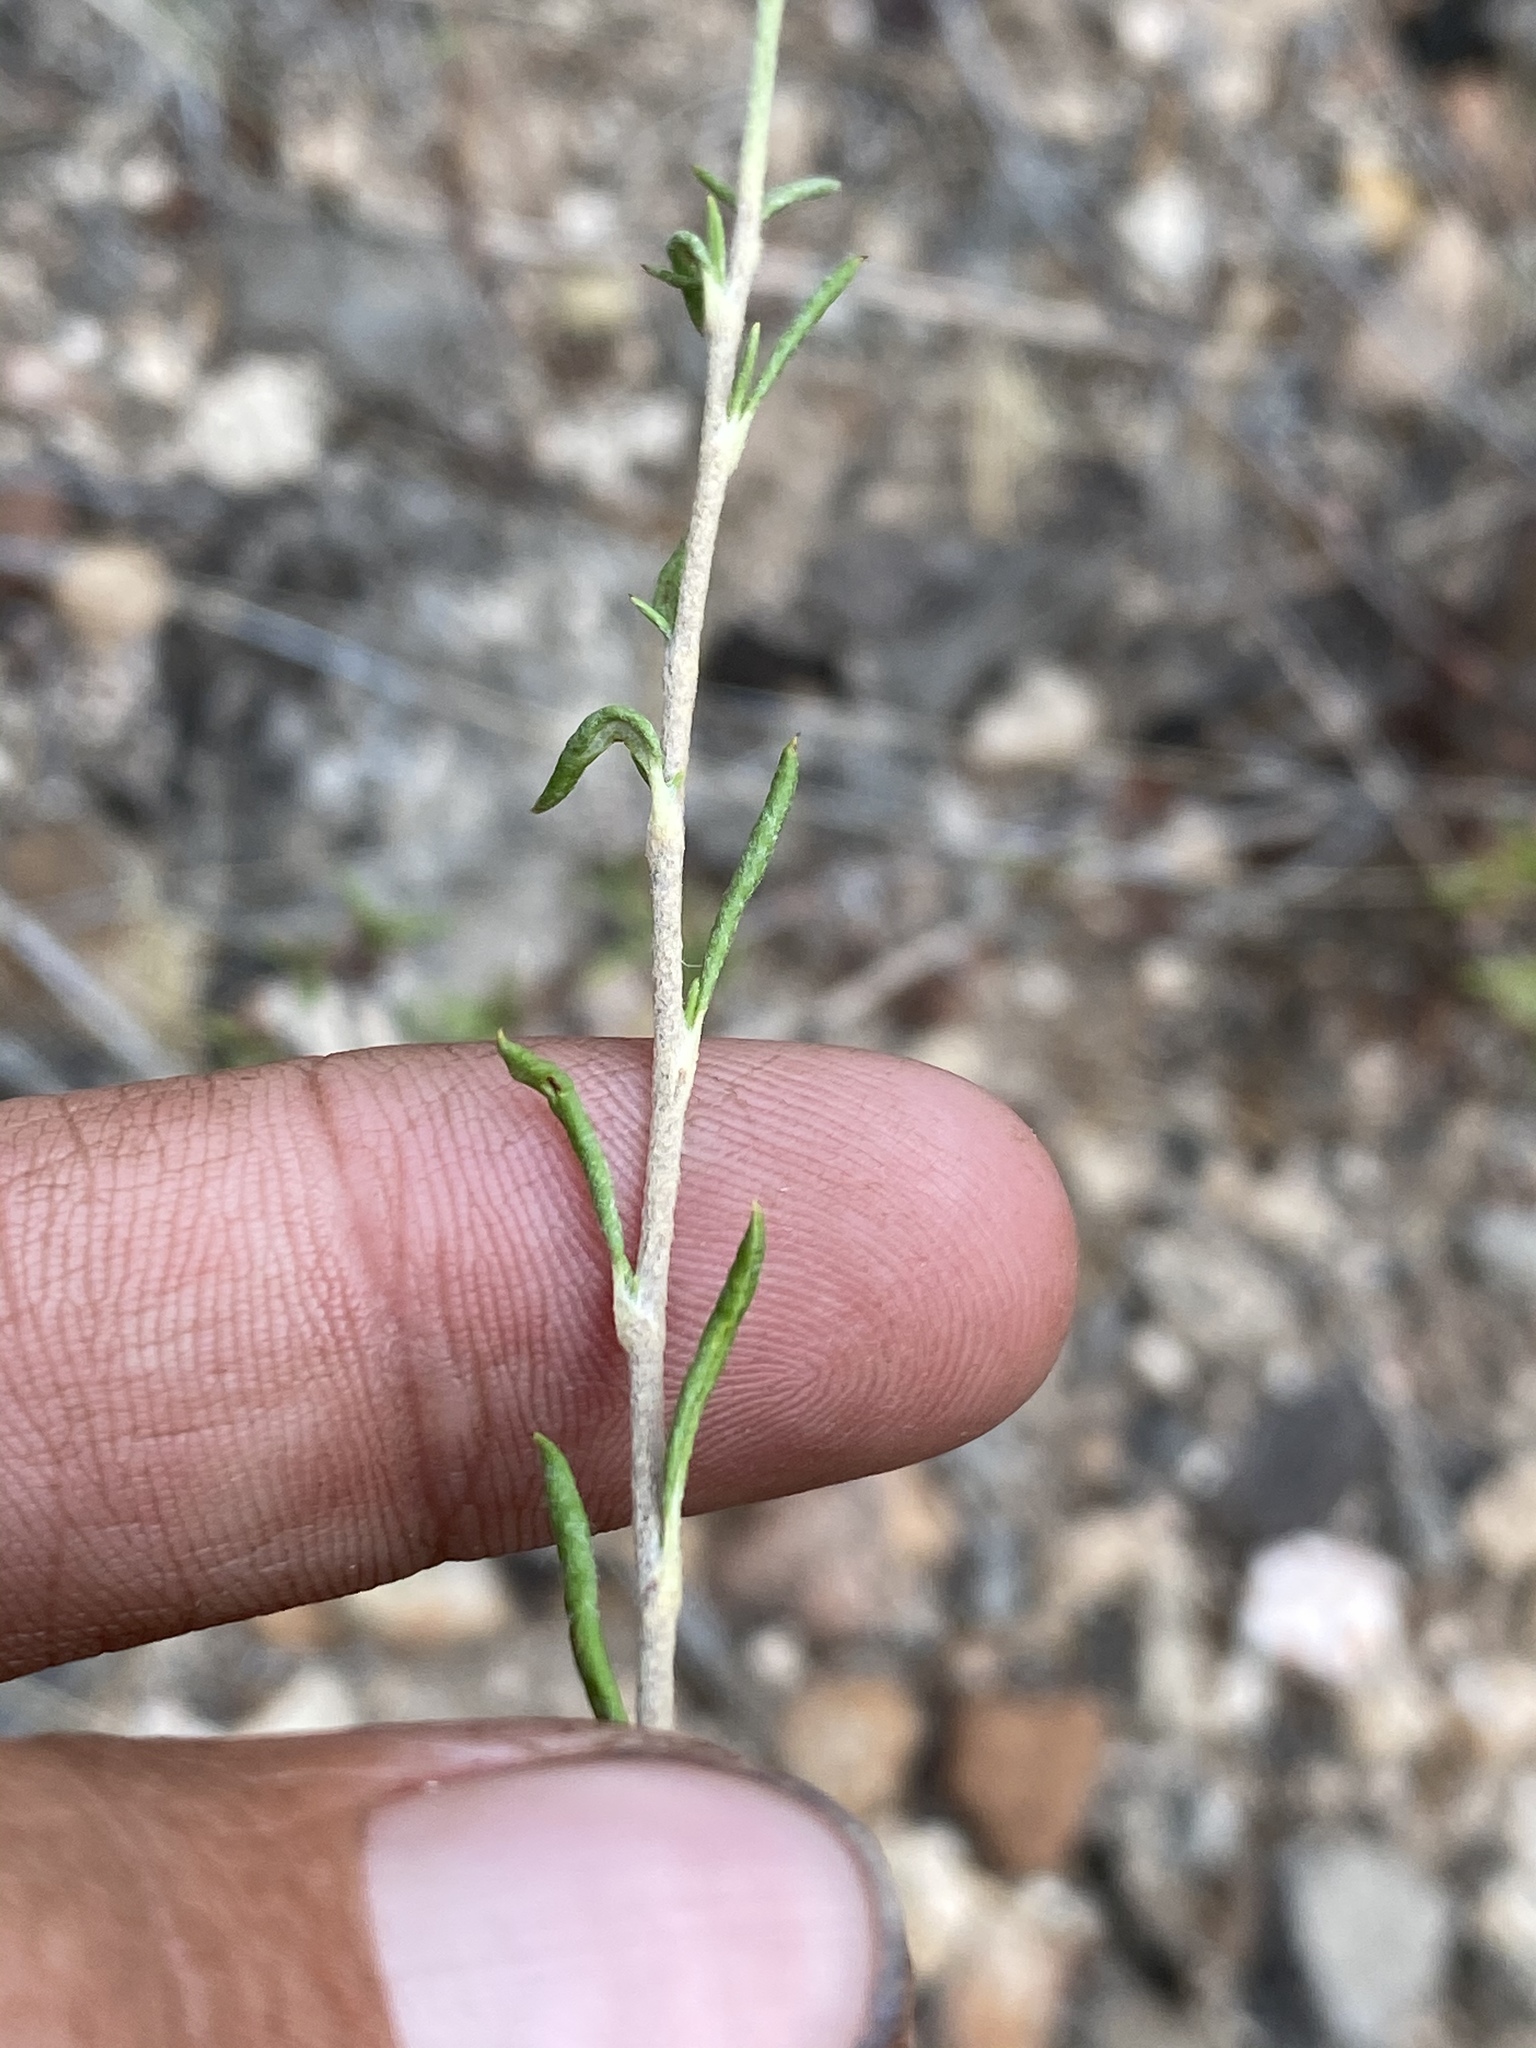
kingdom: Plantae
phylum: Tracheophyta
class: Magnoliopsida
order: Caryophyllales
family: Polygonaceae
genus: Eriogonum
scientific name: Eriogonum microtheca
